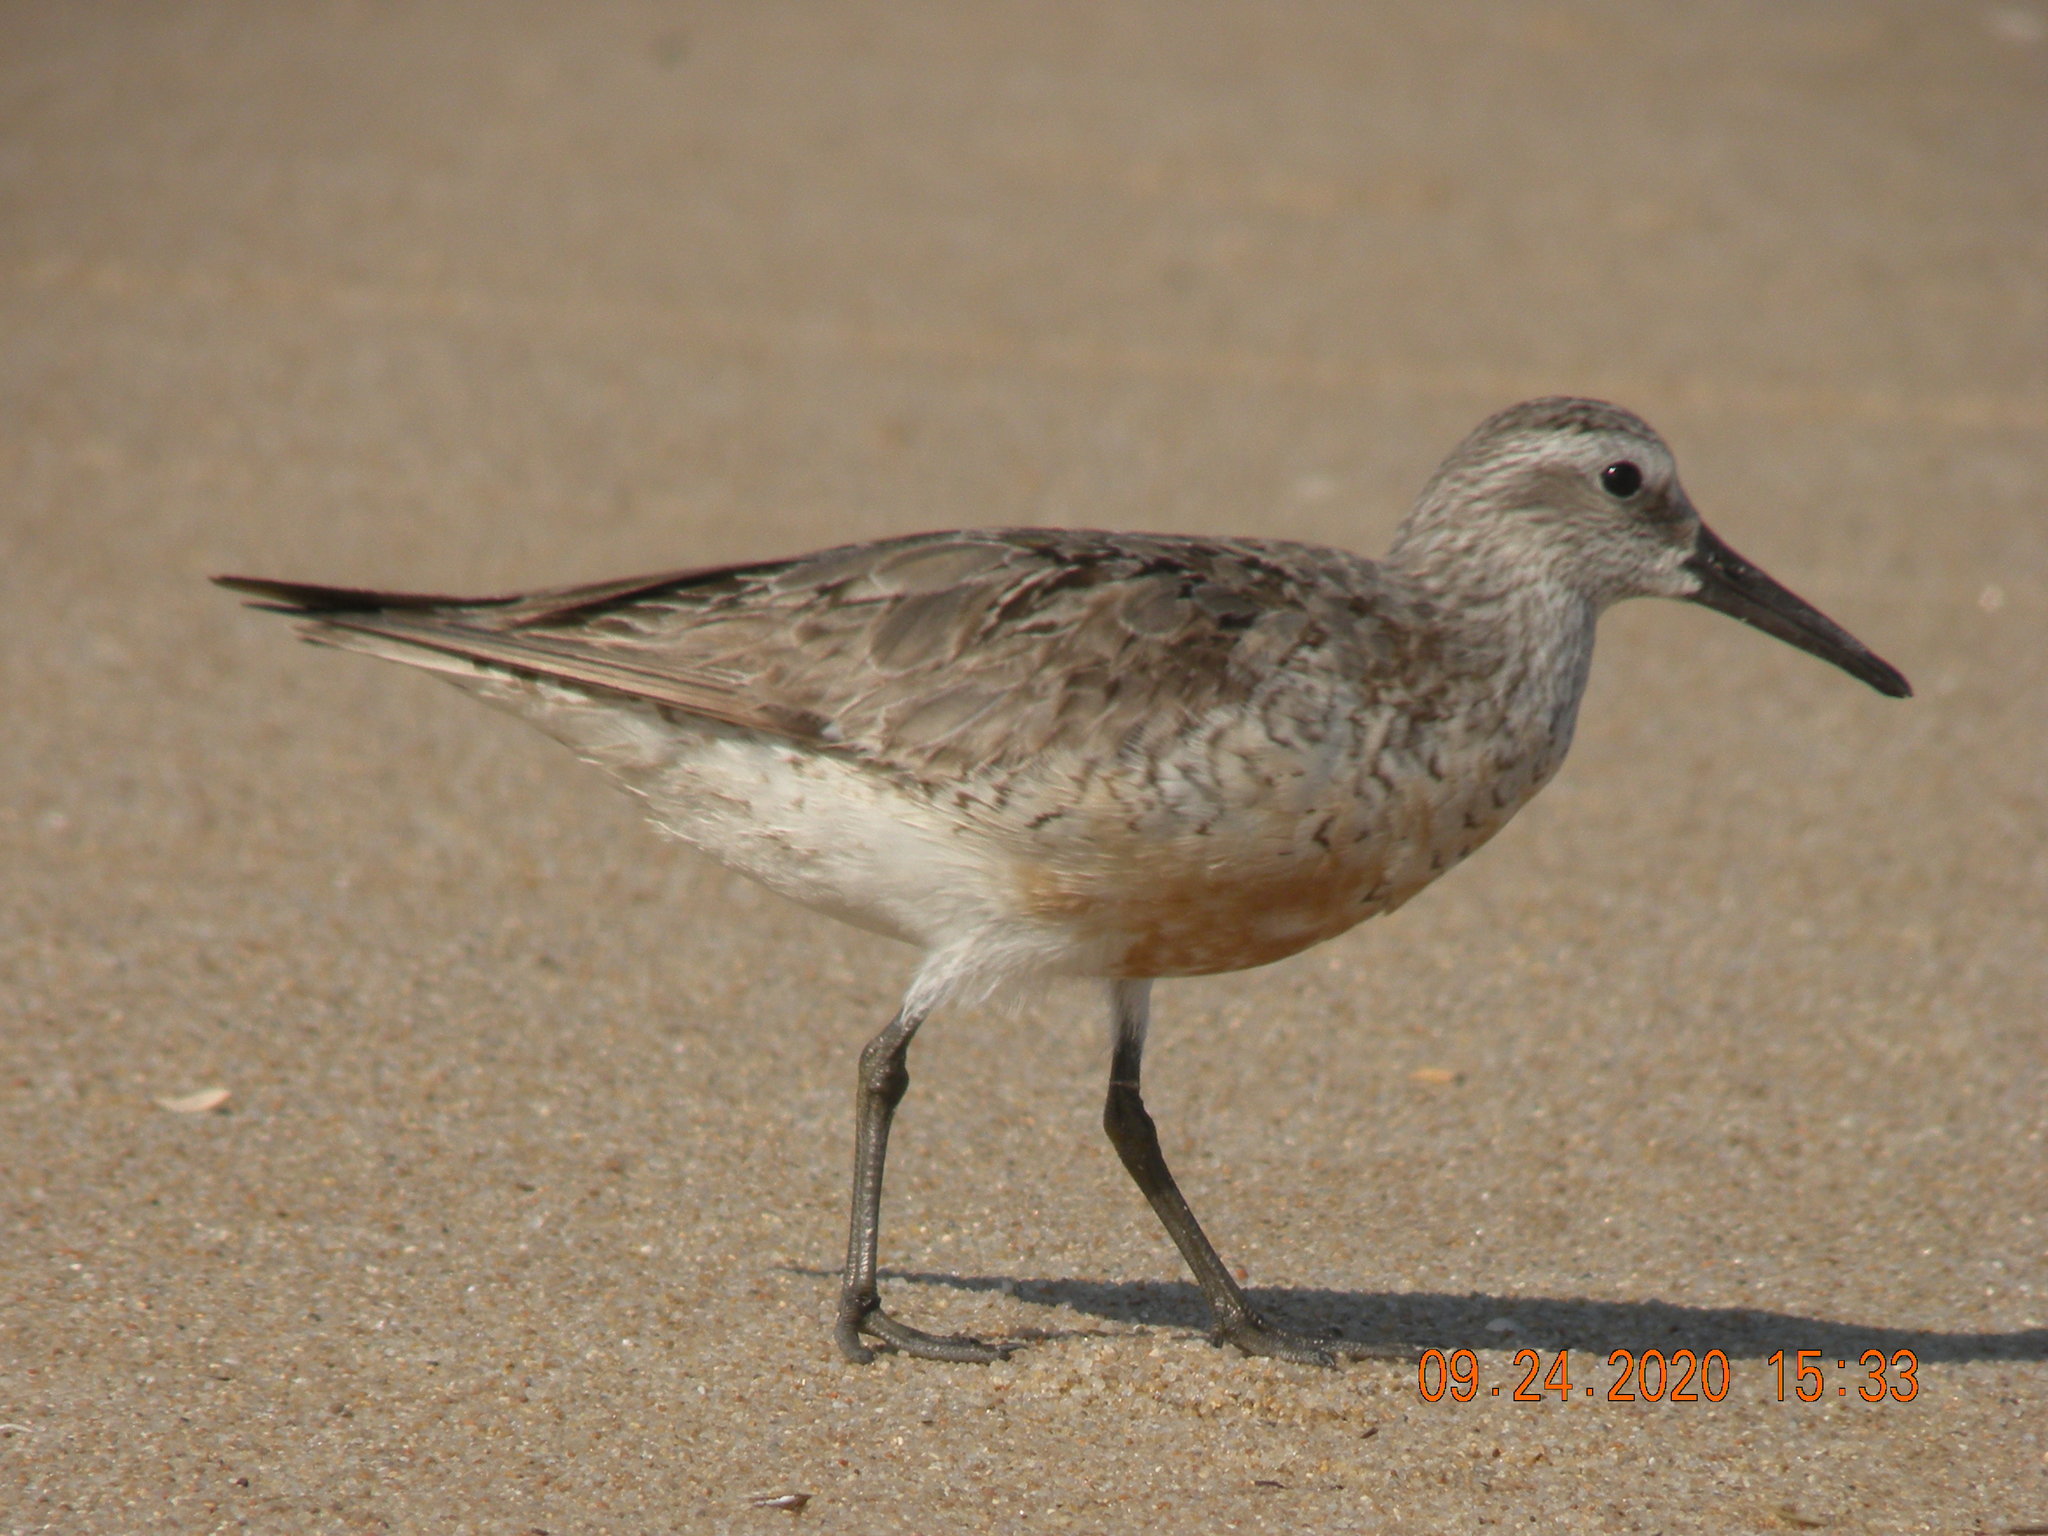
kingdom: Animalia
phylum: Chordata
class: Aves
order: Charadriiformes
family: Scolopacidae
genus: Calidris
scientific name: Calidris canutus
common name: Red knot
